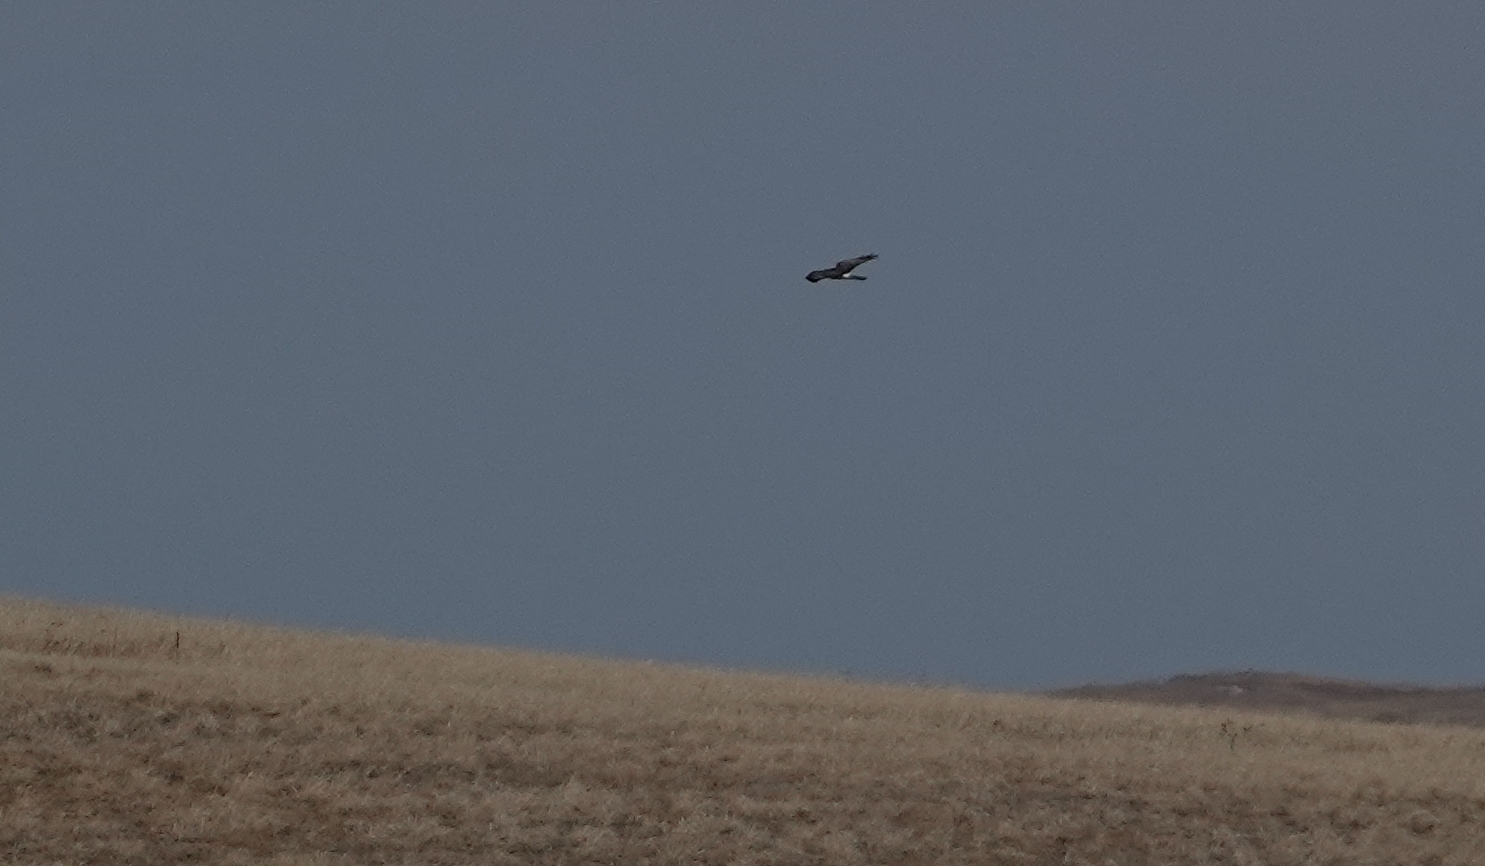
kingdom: Animalia
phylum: Chordata
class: Aves
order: Accipitriformes
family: Accipitridae
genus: Circus
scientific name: Circus cyaneus
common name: Hen harrier
